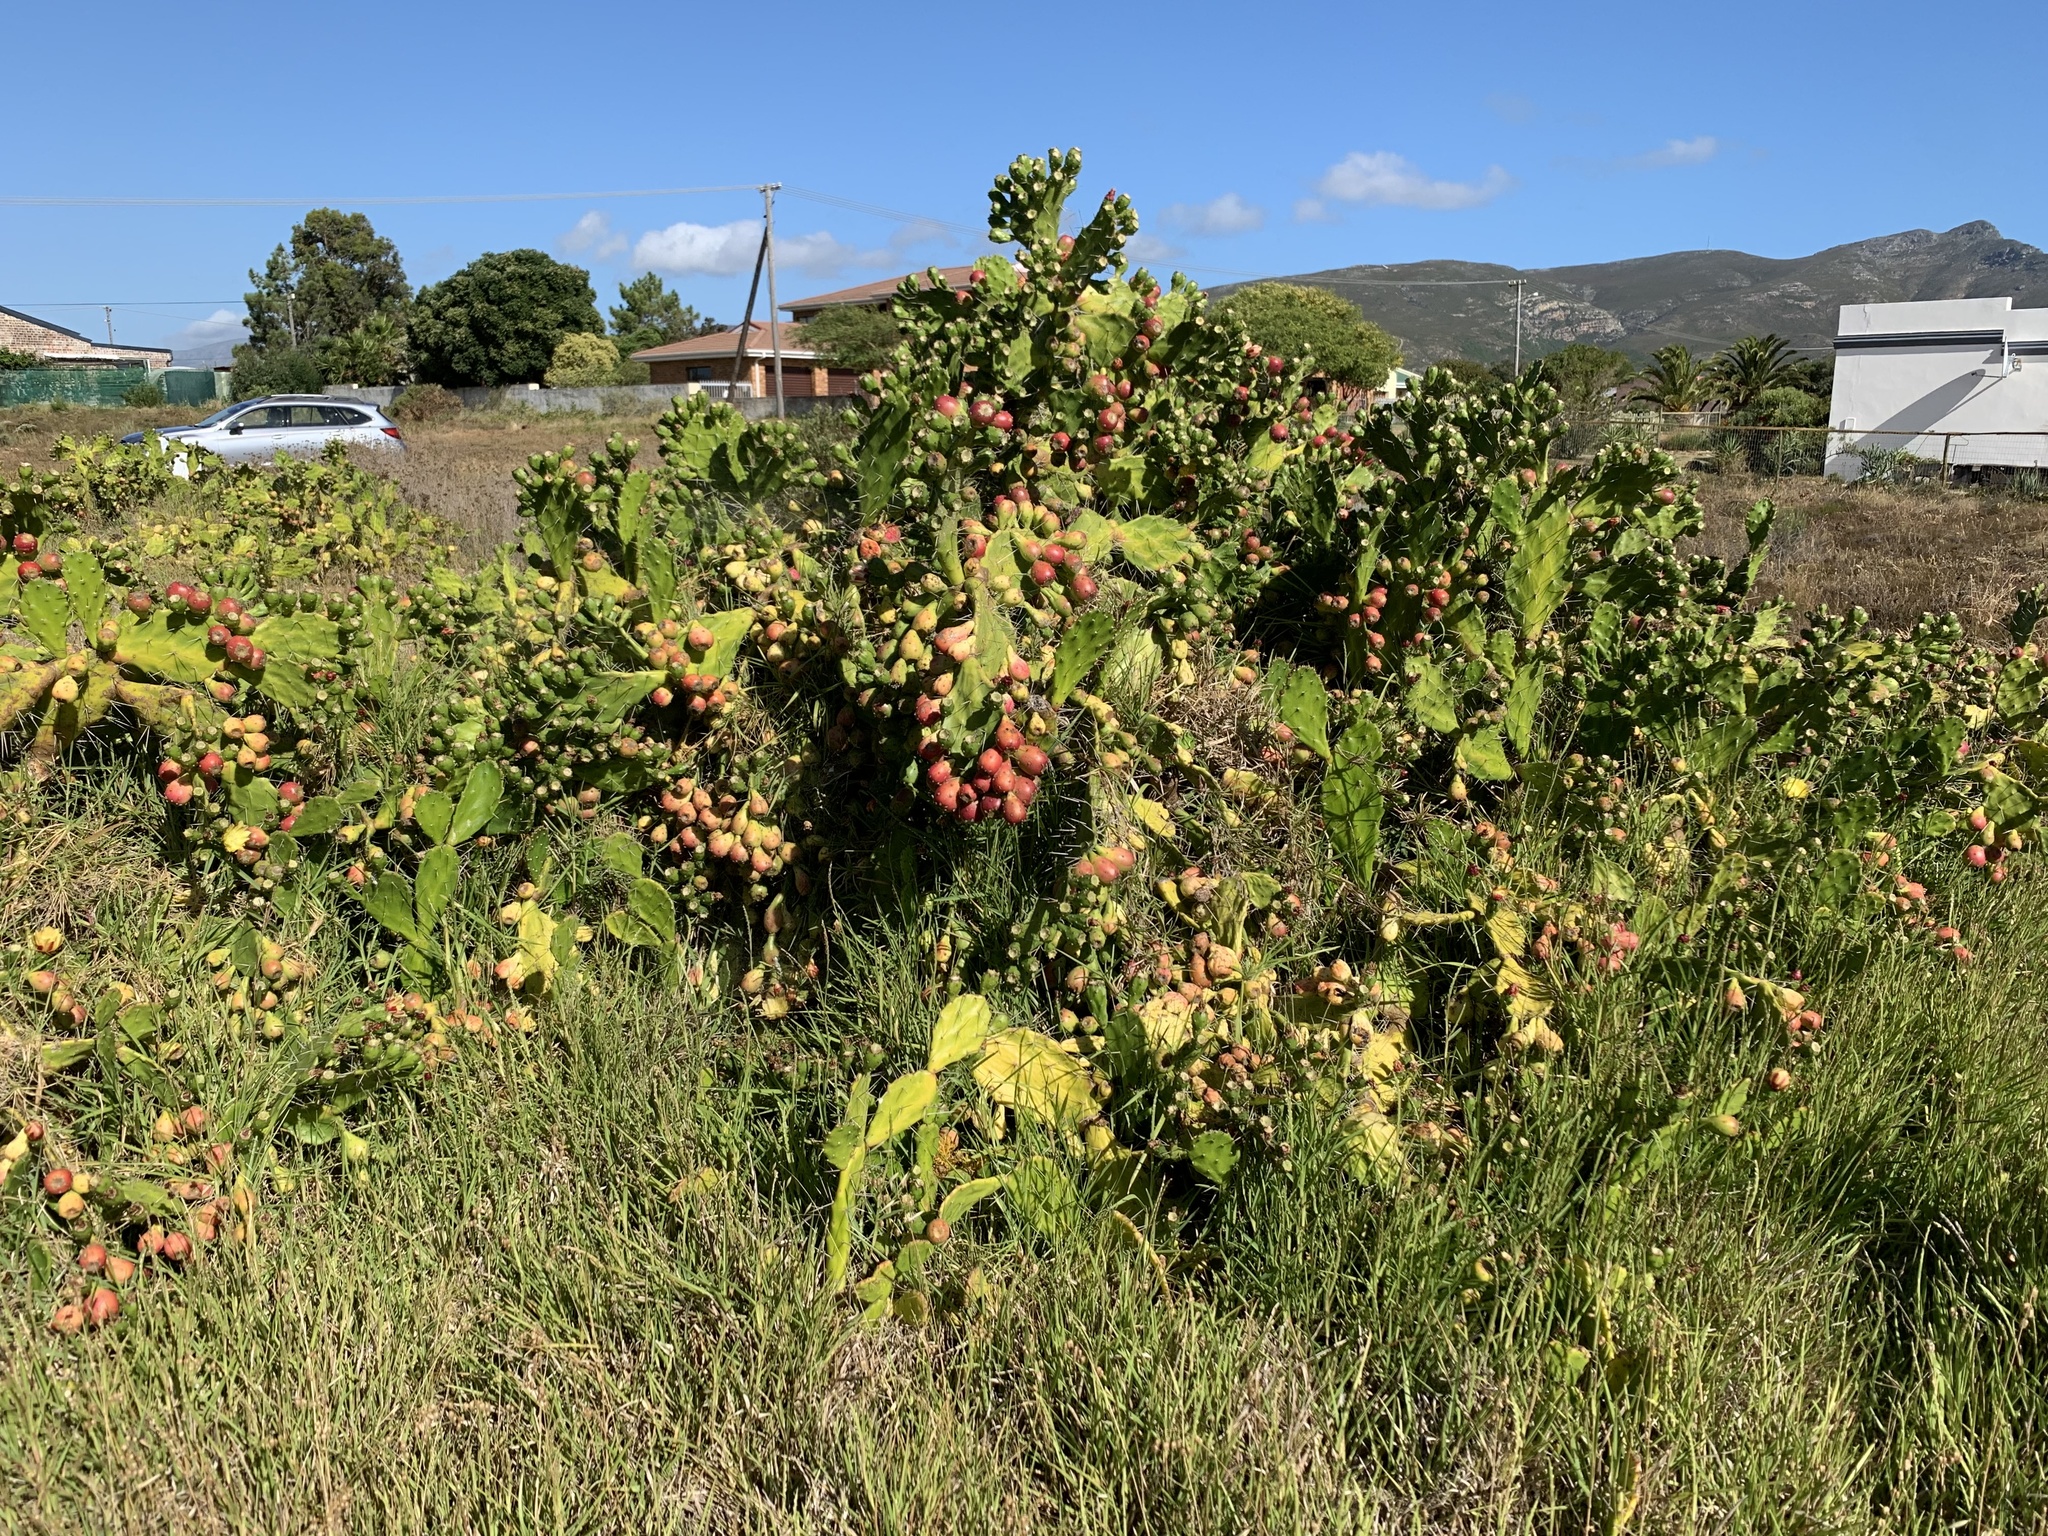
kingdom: Plantae
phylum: Tracheophyta
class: Magnoliopsida
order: Caryophyllales
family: Cactaceae
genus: Opuntia
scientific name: Opuntia monacantha
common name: Common pricklypear
